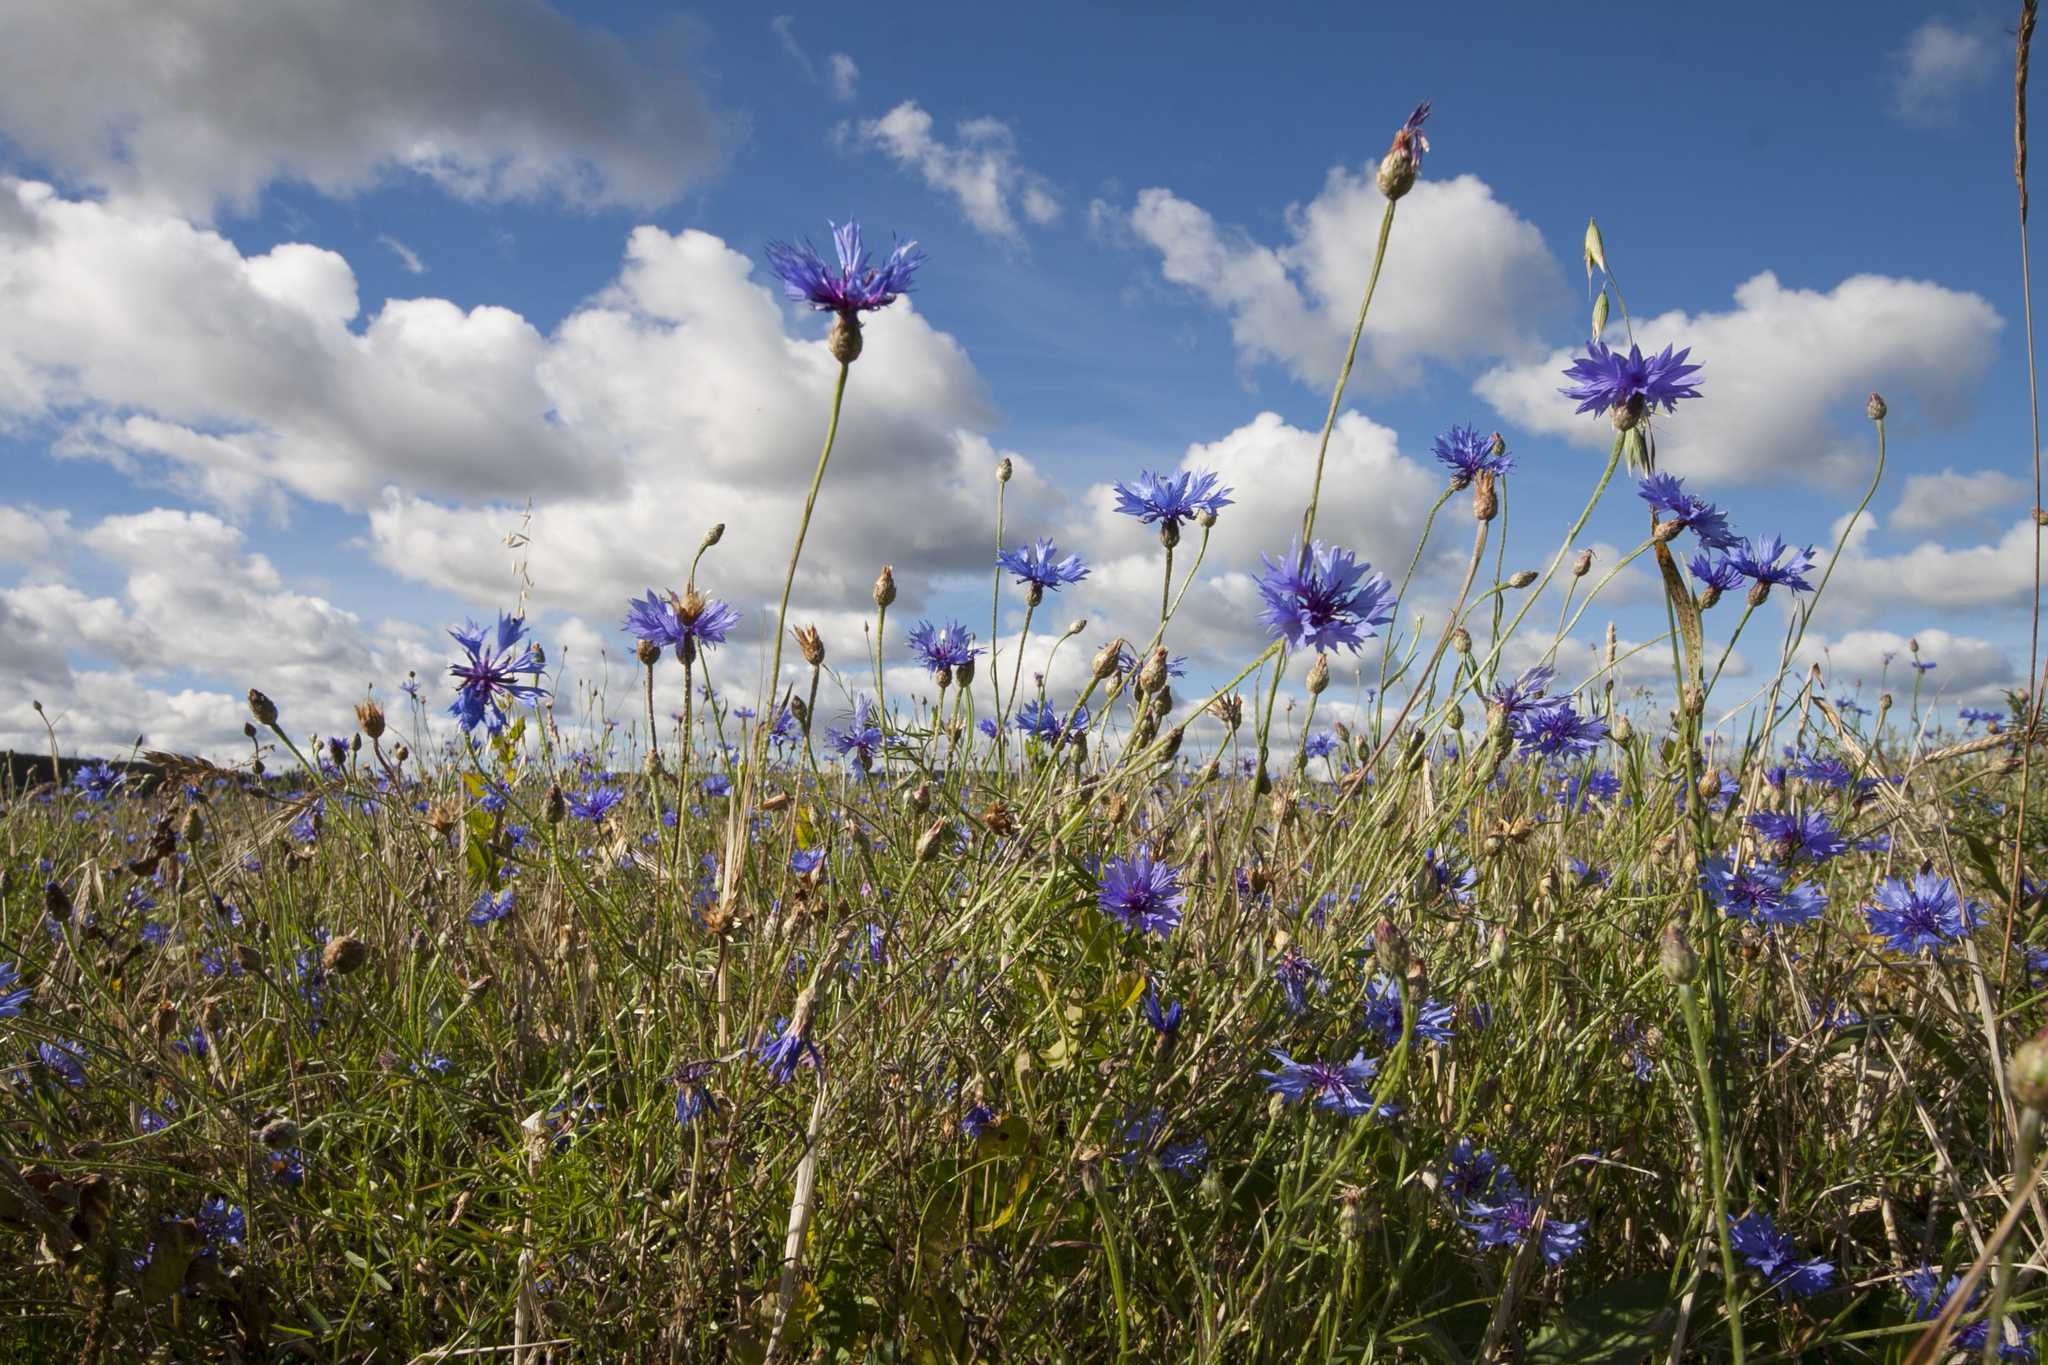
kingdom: Plantae
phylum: Tracheophyta
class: Magnoliopsida
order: Asterales
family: Asteraceae
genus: Centaurea
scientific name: Centaurea cyanus
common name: Cornflower
